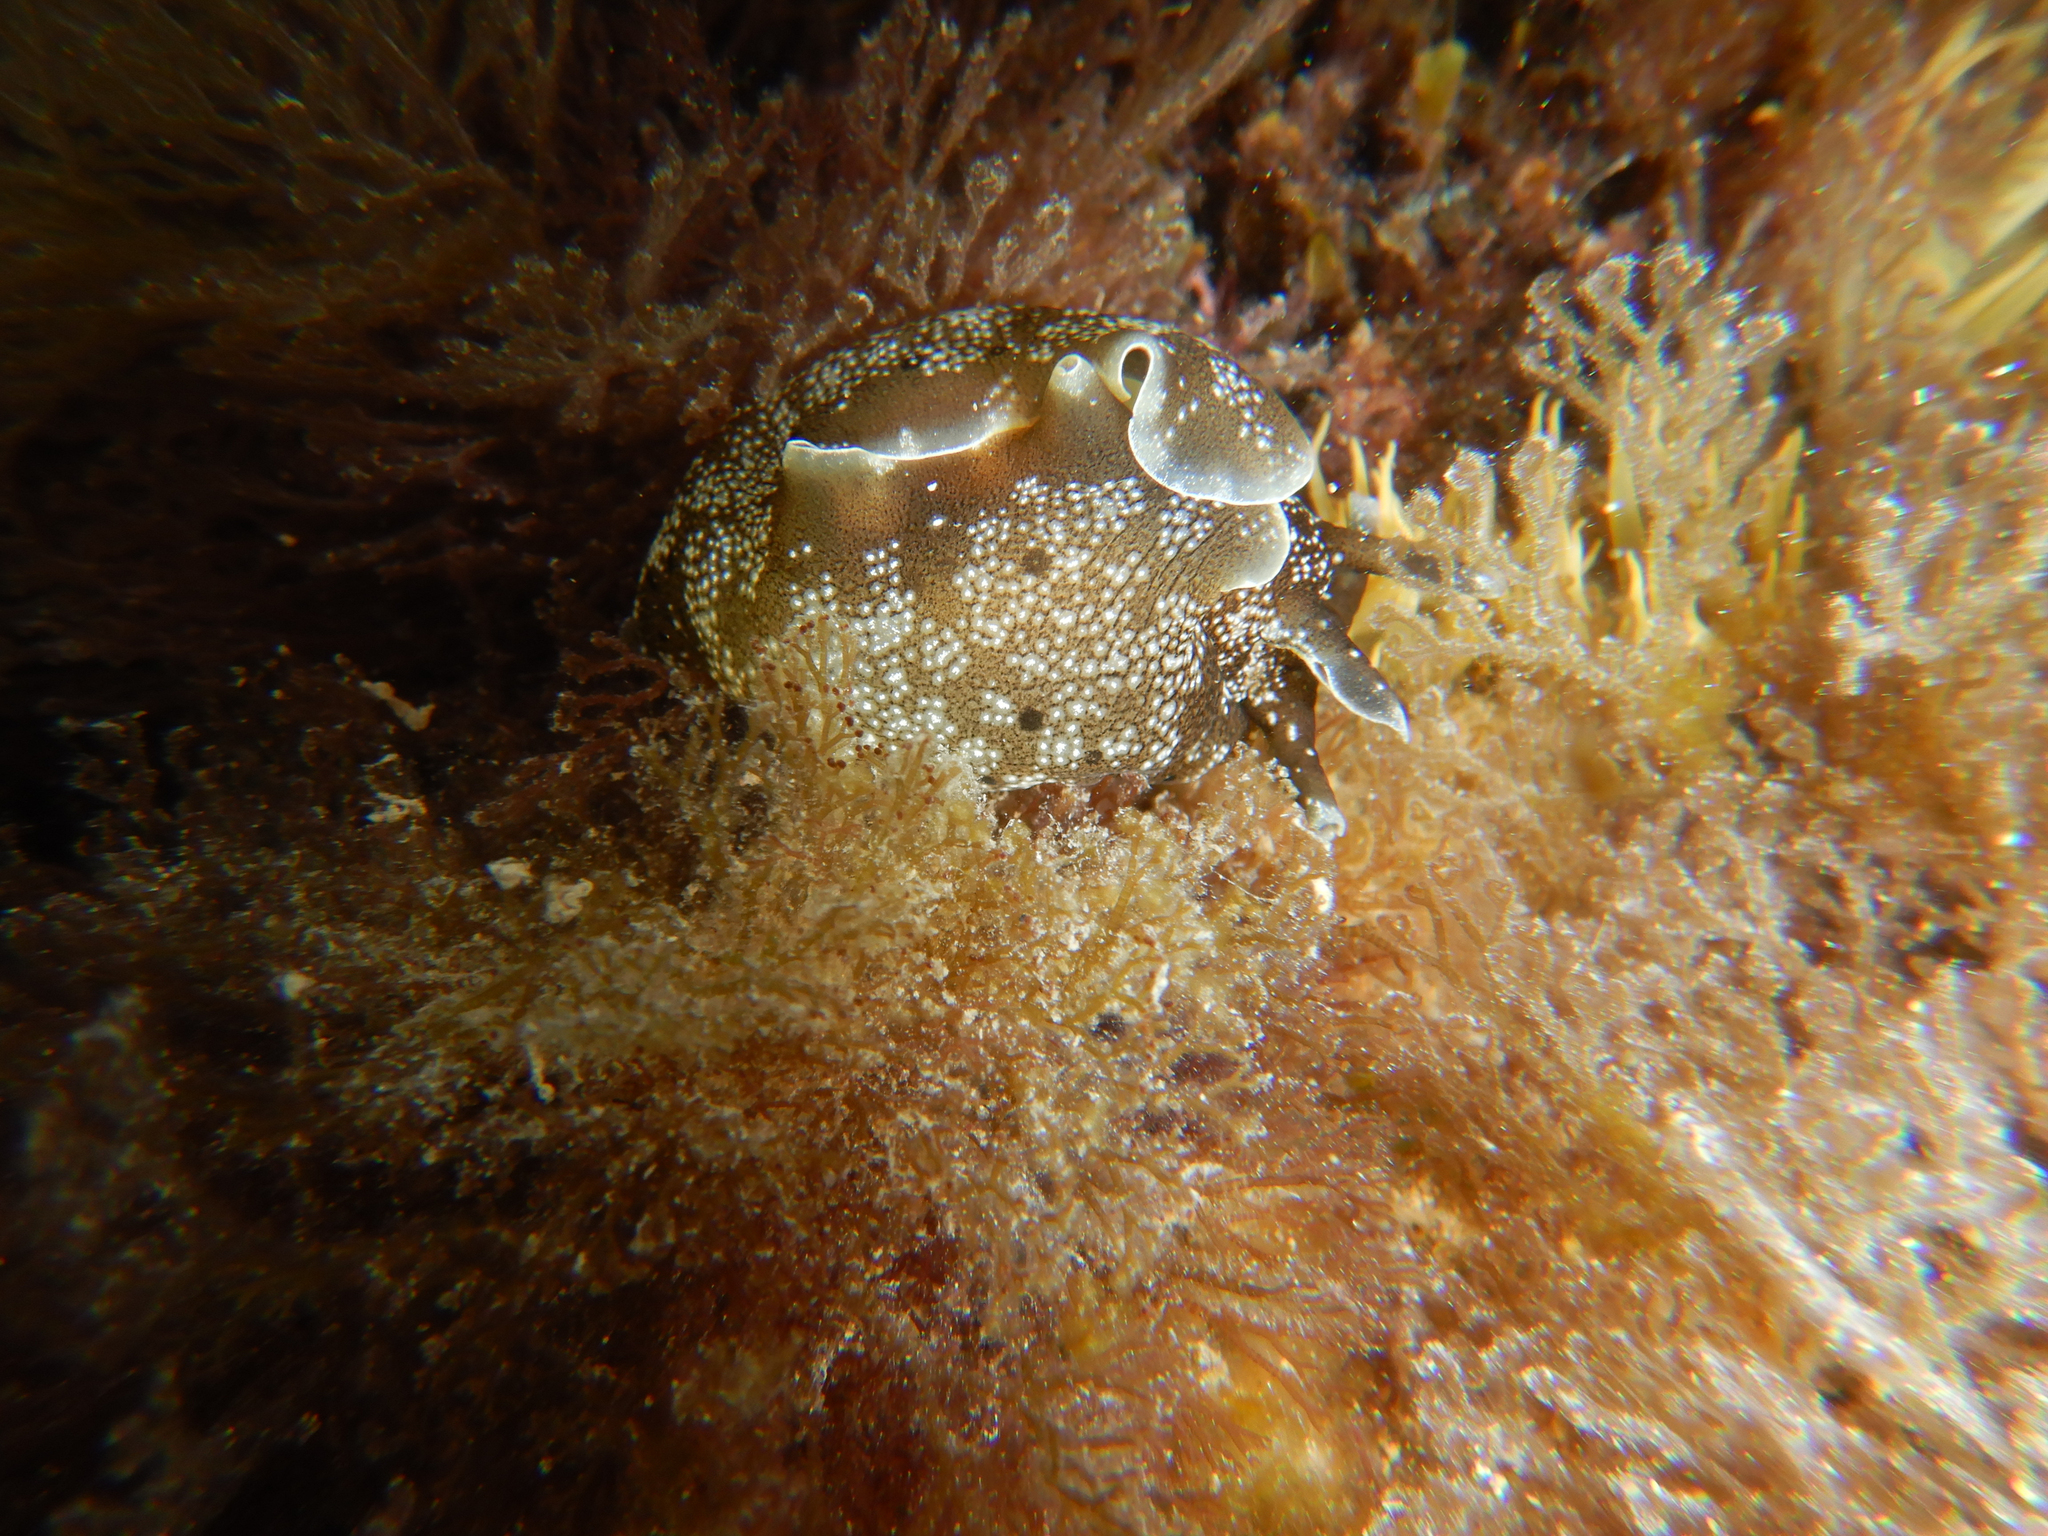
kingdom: Animalia
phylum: Mollusca
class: Gastropoda
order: Aplysiida
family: Aplysiidae
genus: Aplysia
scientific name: Aplysia punctata
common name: Common sea hare
